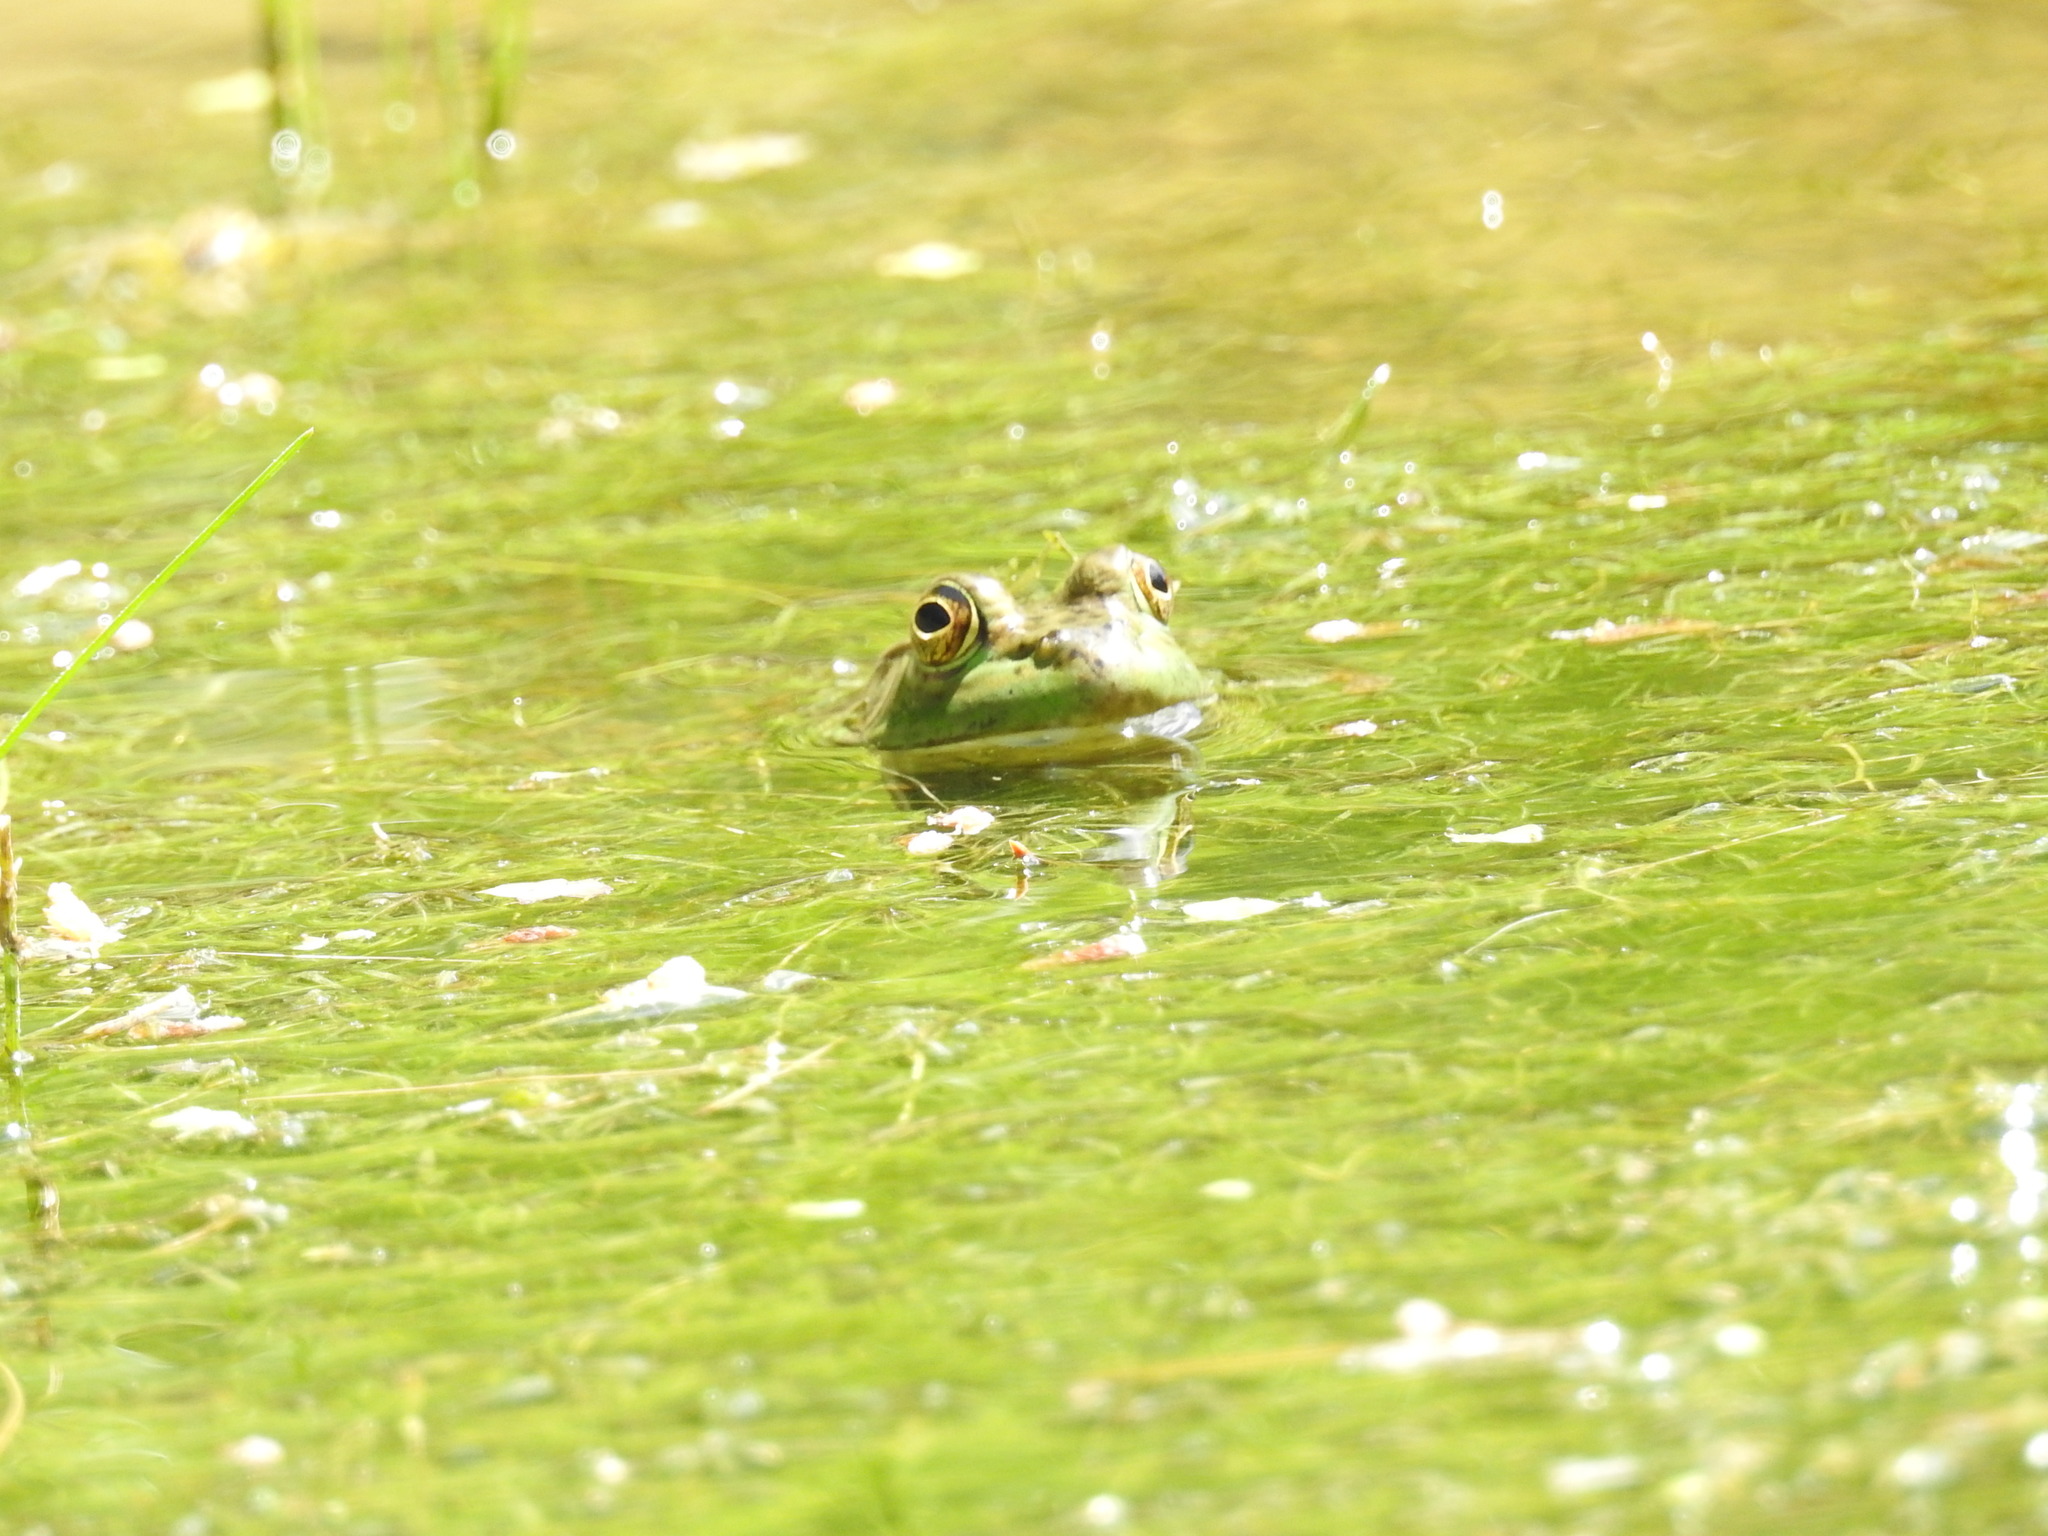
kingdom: Animalia
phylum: Chordata
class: Amphibia
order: Anura
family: Ranidae
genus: Lithobates
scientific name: Lithobates catesbeianus
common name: American bullfrog
